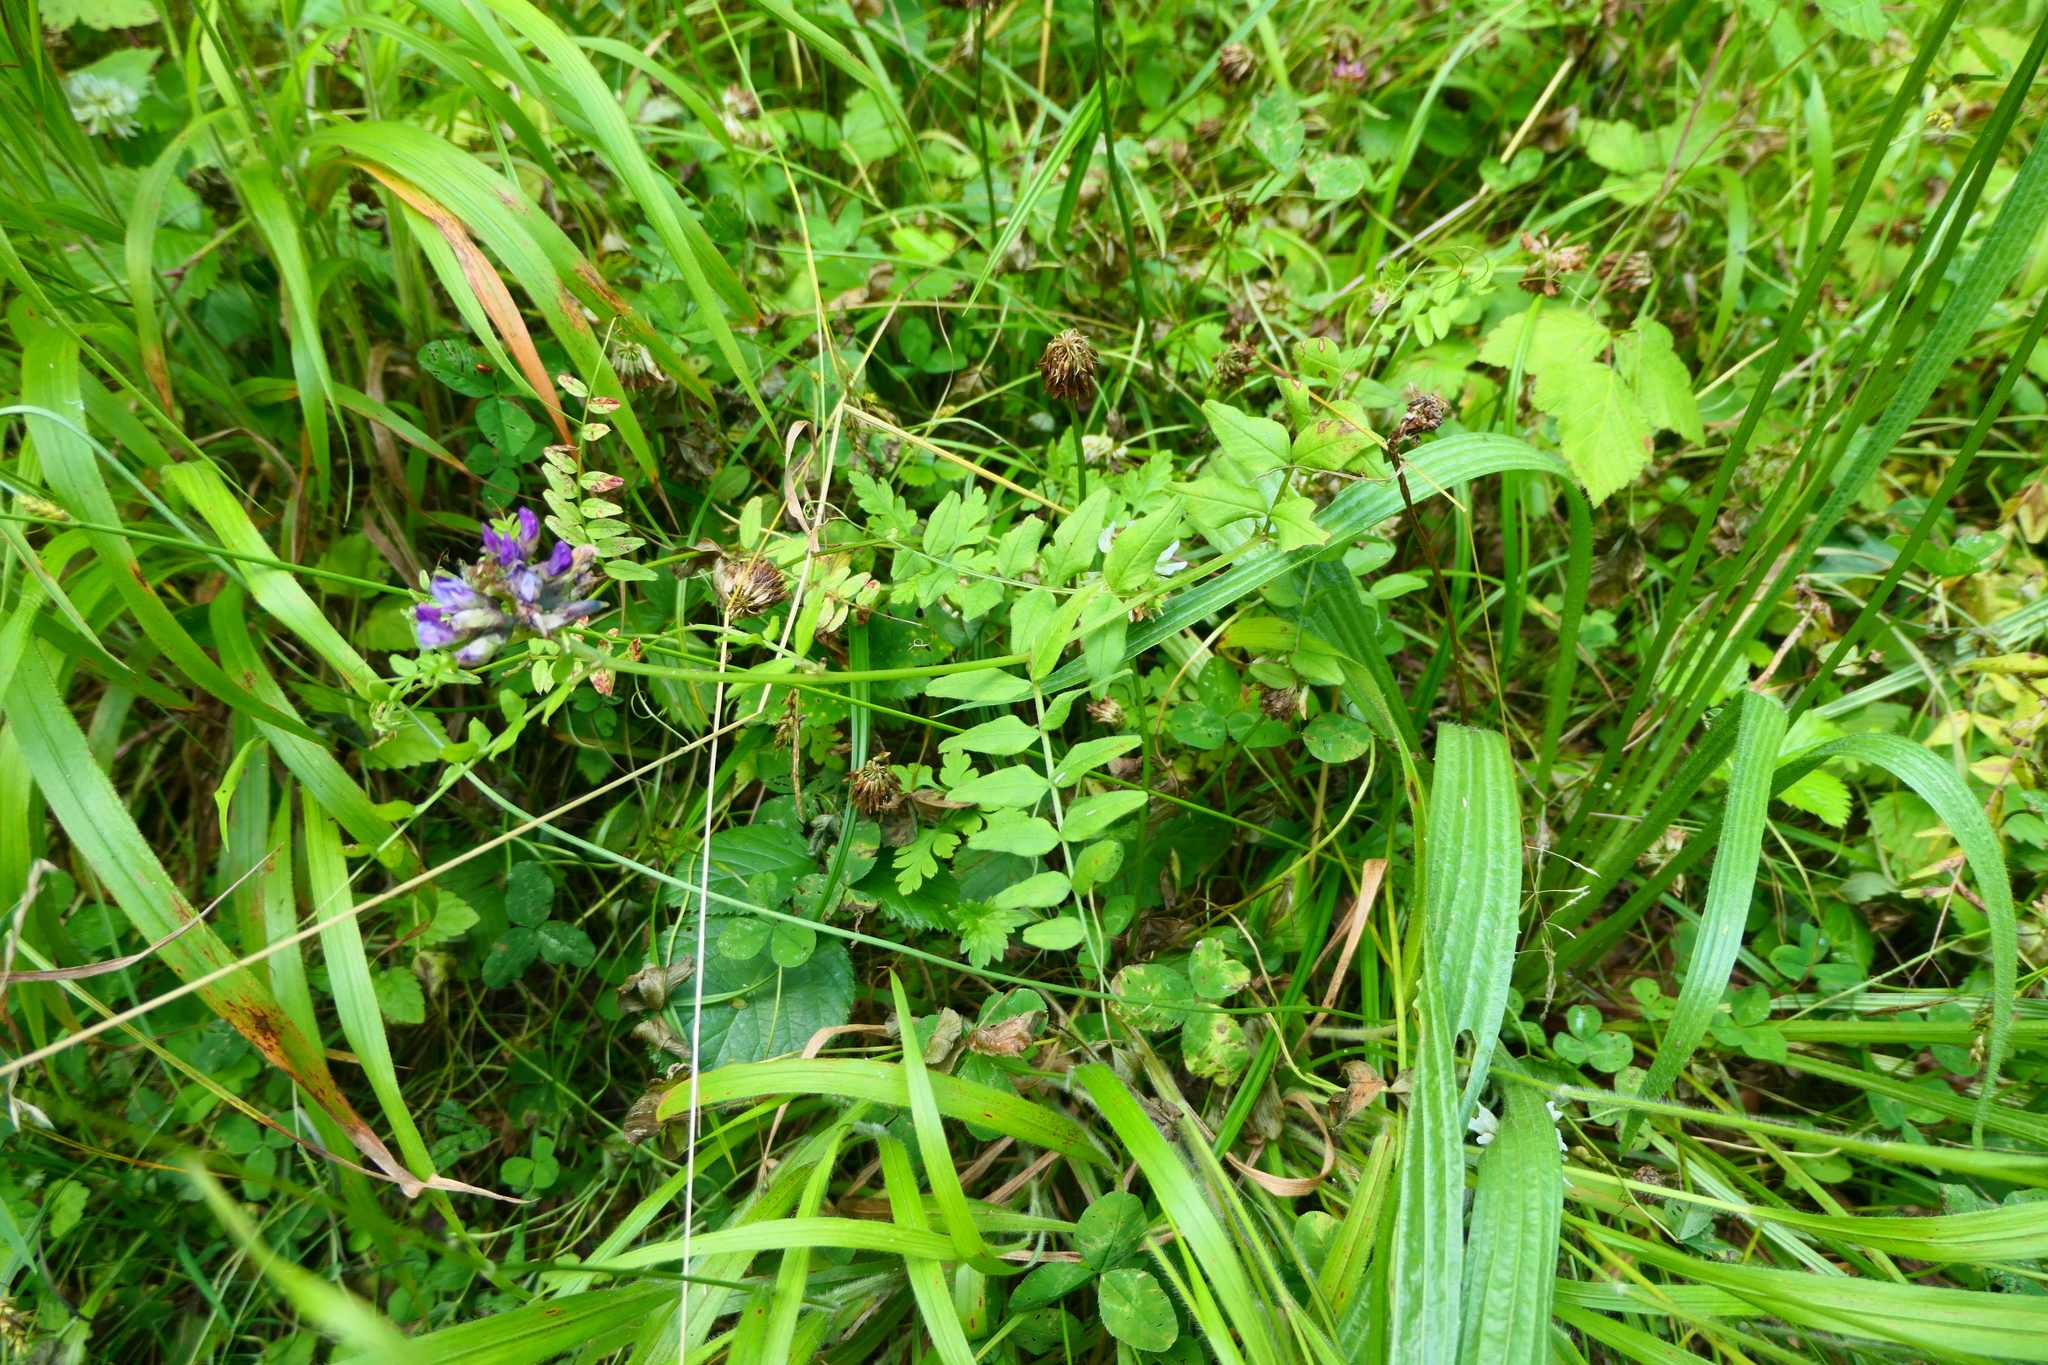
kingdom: Plantae
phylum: Tracheophyta
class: Magnoliopsida
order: Fabales
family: Fabaceae
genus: Vicia
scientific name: Vicia sepium
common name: Bush vetch
